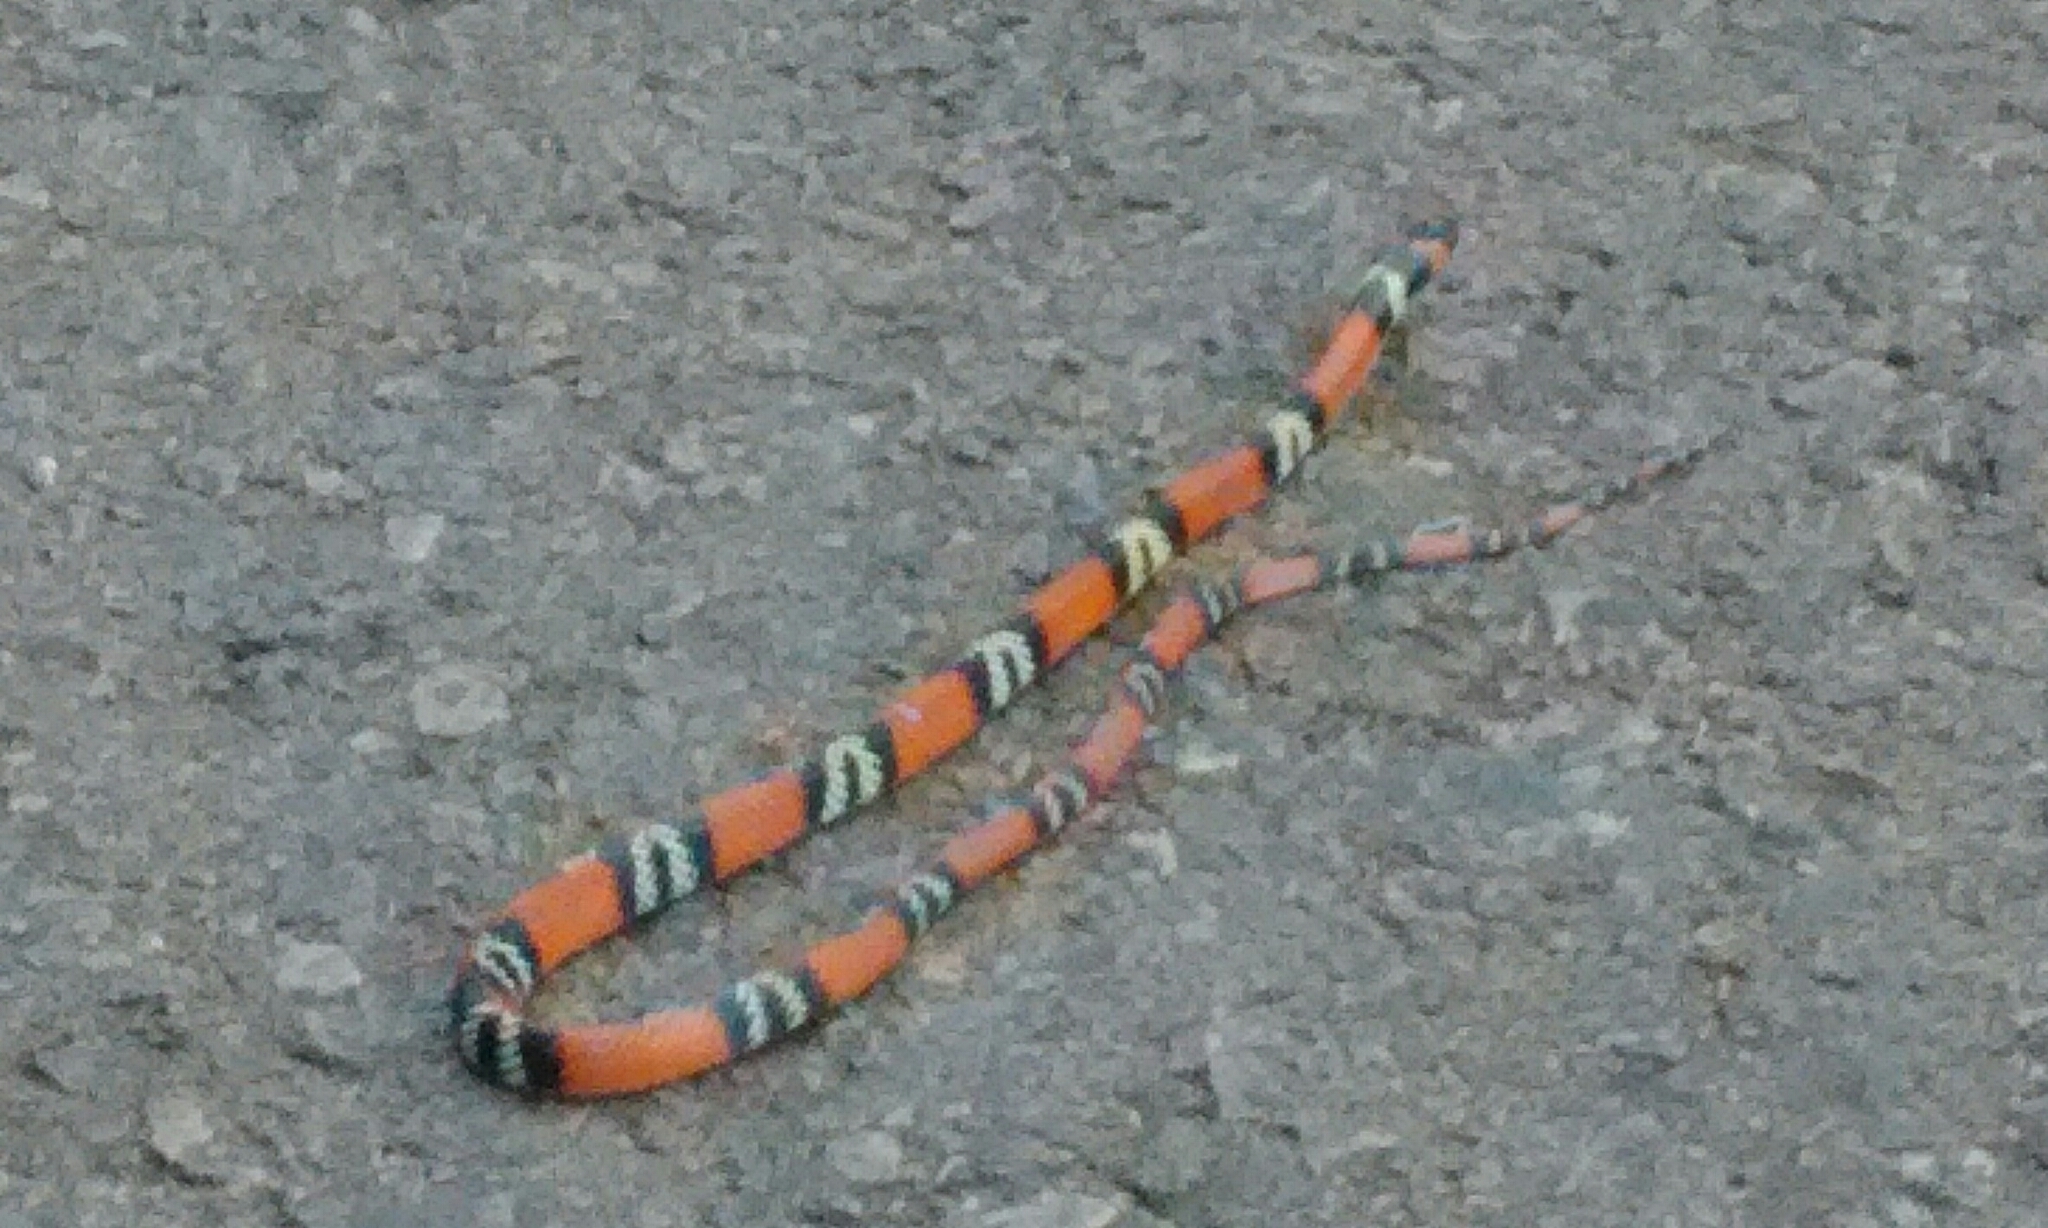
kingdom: Animalia
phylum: Chordata
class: Squamata
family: Colubridae
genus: Oxyrhopus
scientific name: Oxyrhopus guibei
